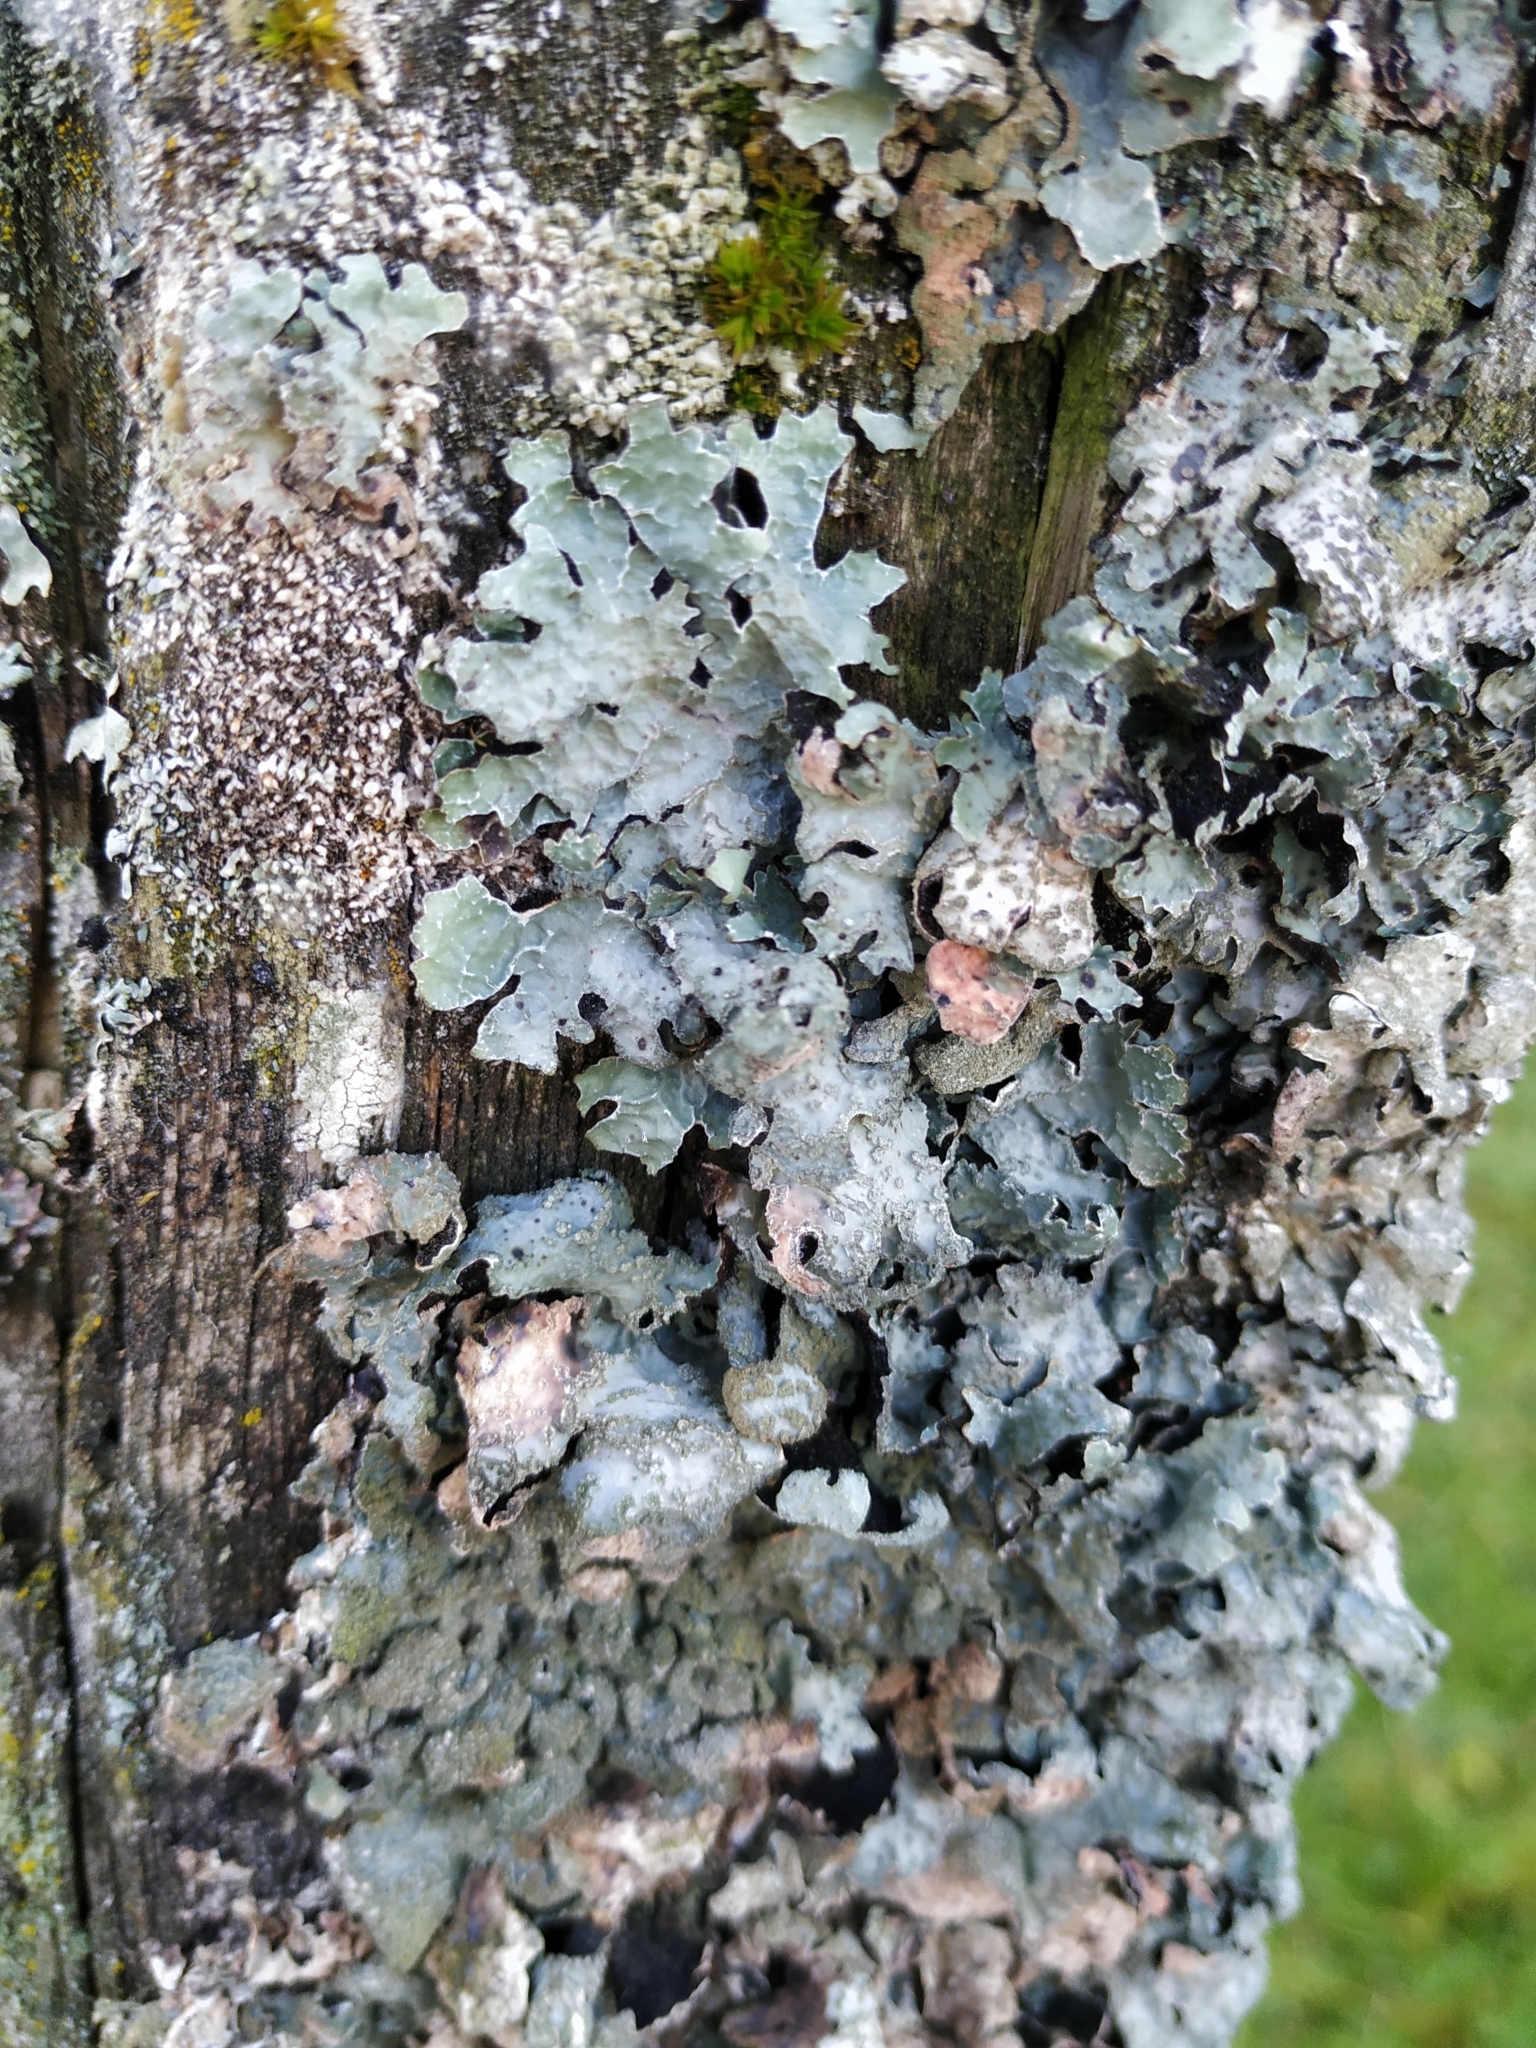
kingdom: Fungi
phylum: Ascomycota
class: Lecanoromycetes
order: Lecanorales
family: Parmeliaceae
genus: Parmelia
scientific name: Parmelia sulcata
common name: Netted shield lichen
